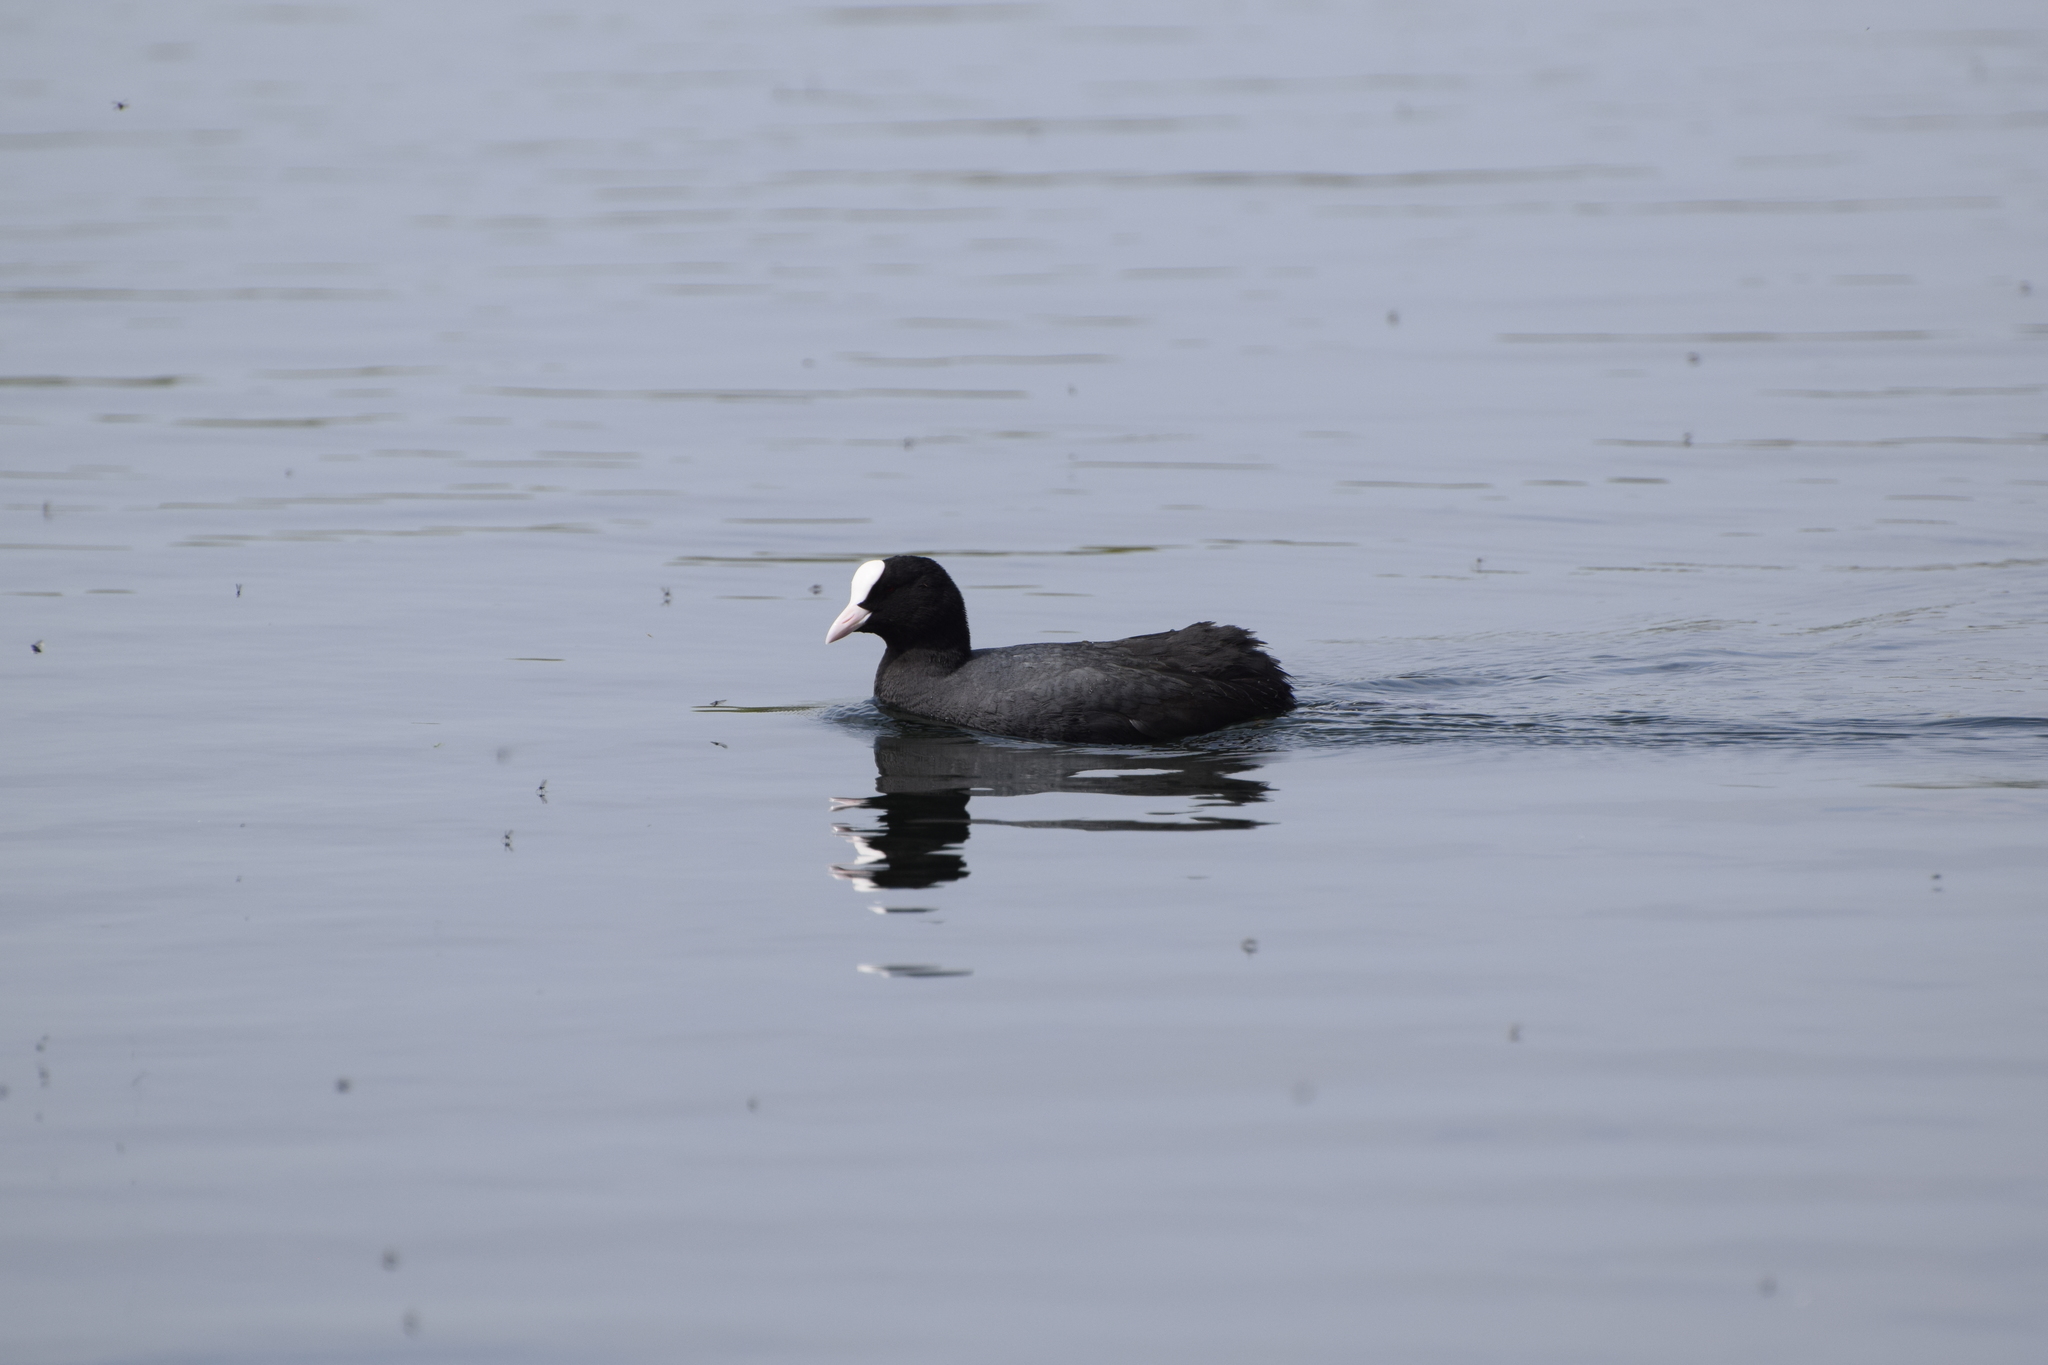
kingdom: Animalia
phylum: Chordata
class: Aves
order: Gruiformes
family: Rallidae
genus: Fulica
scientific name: Fulica atra
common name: Eurasian coot
